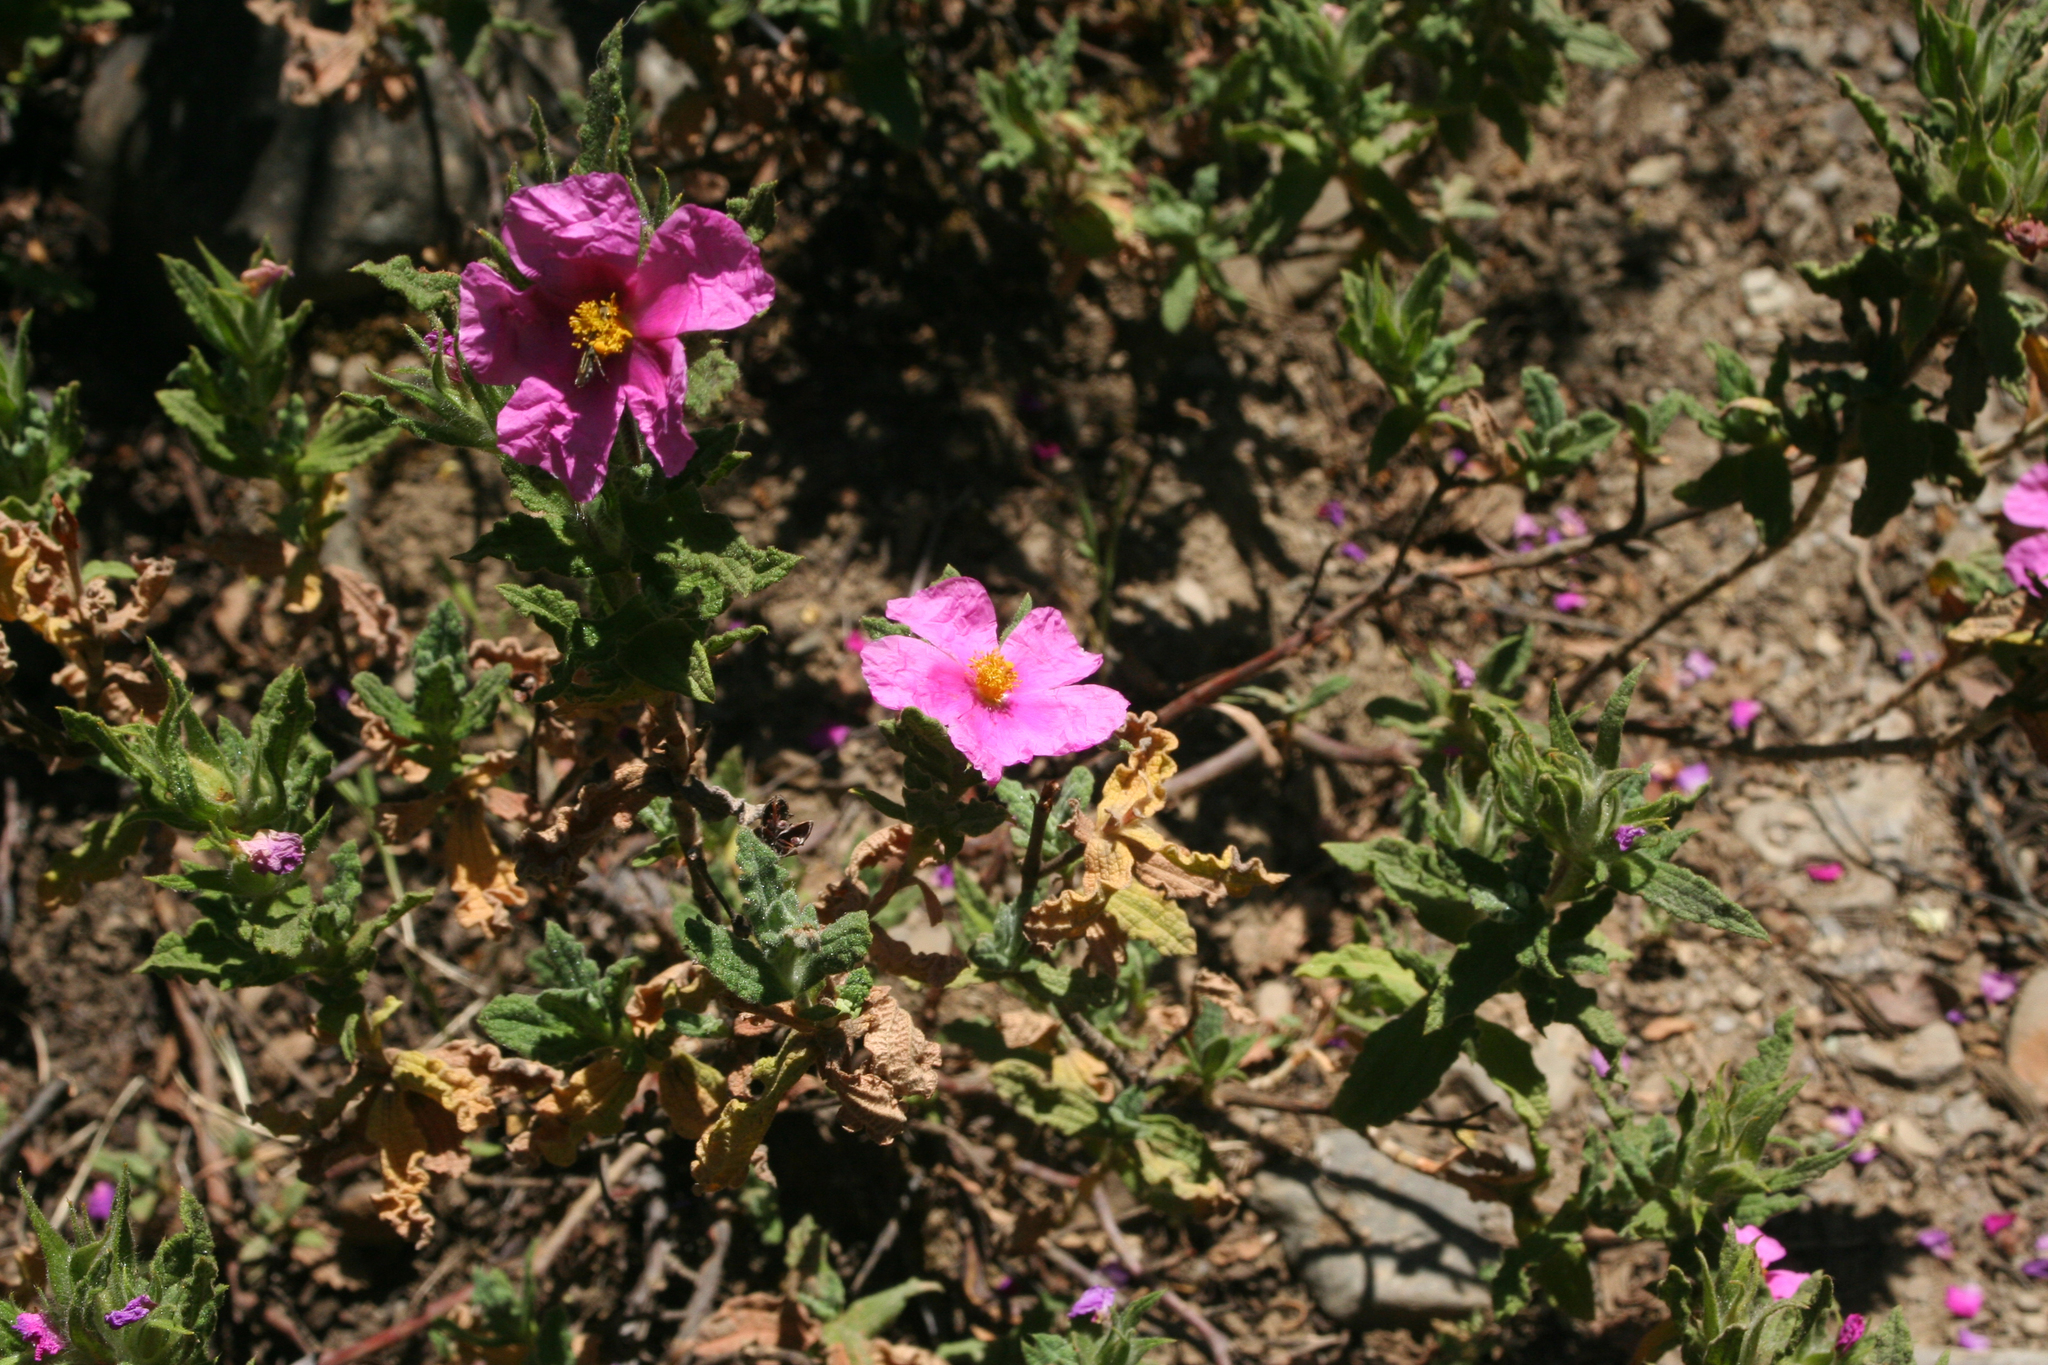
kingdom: Plantae
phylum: Tracheophyta
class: Magnoliopsida
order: Malvales
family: Cistaceae
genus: Cistus
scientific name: Cistus crispus
